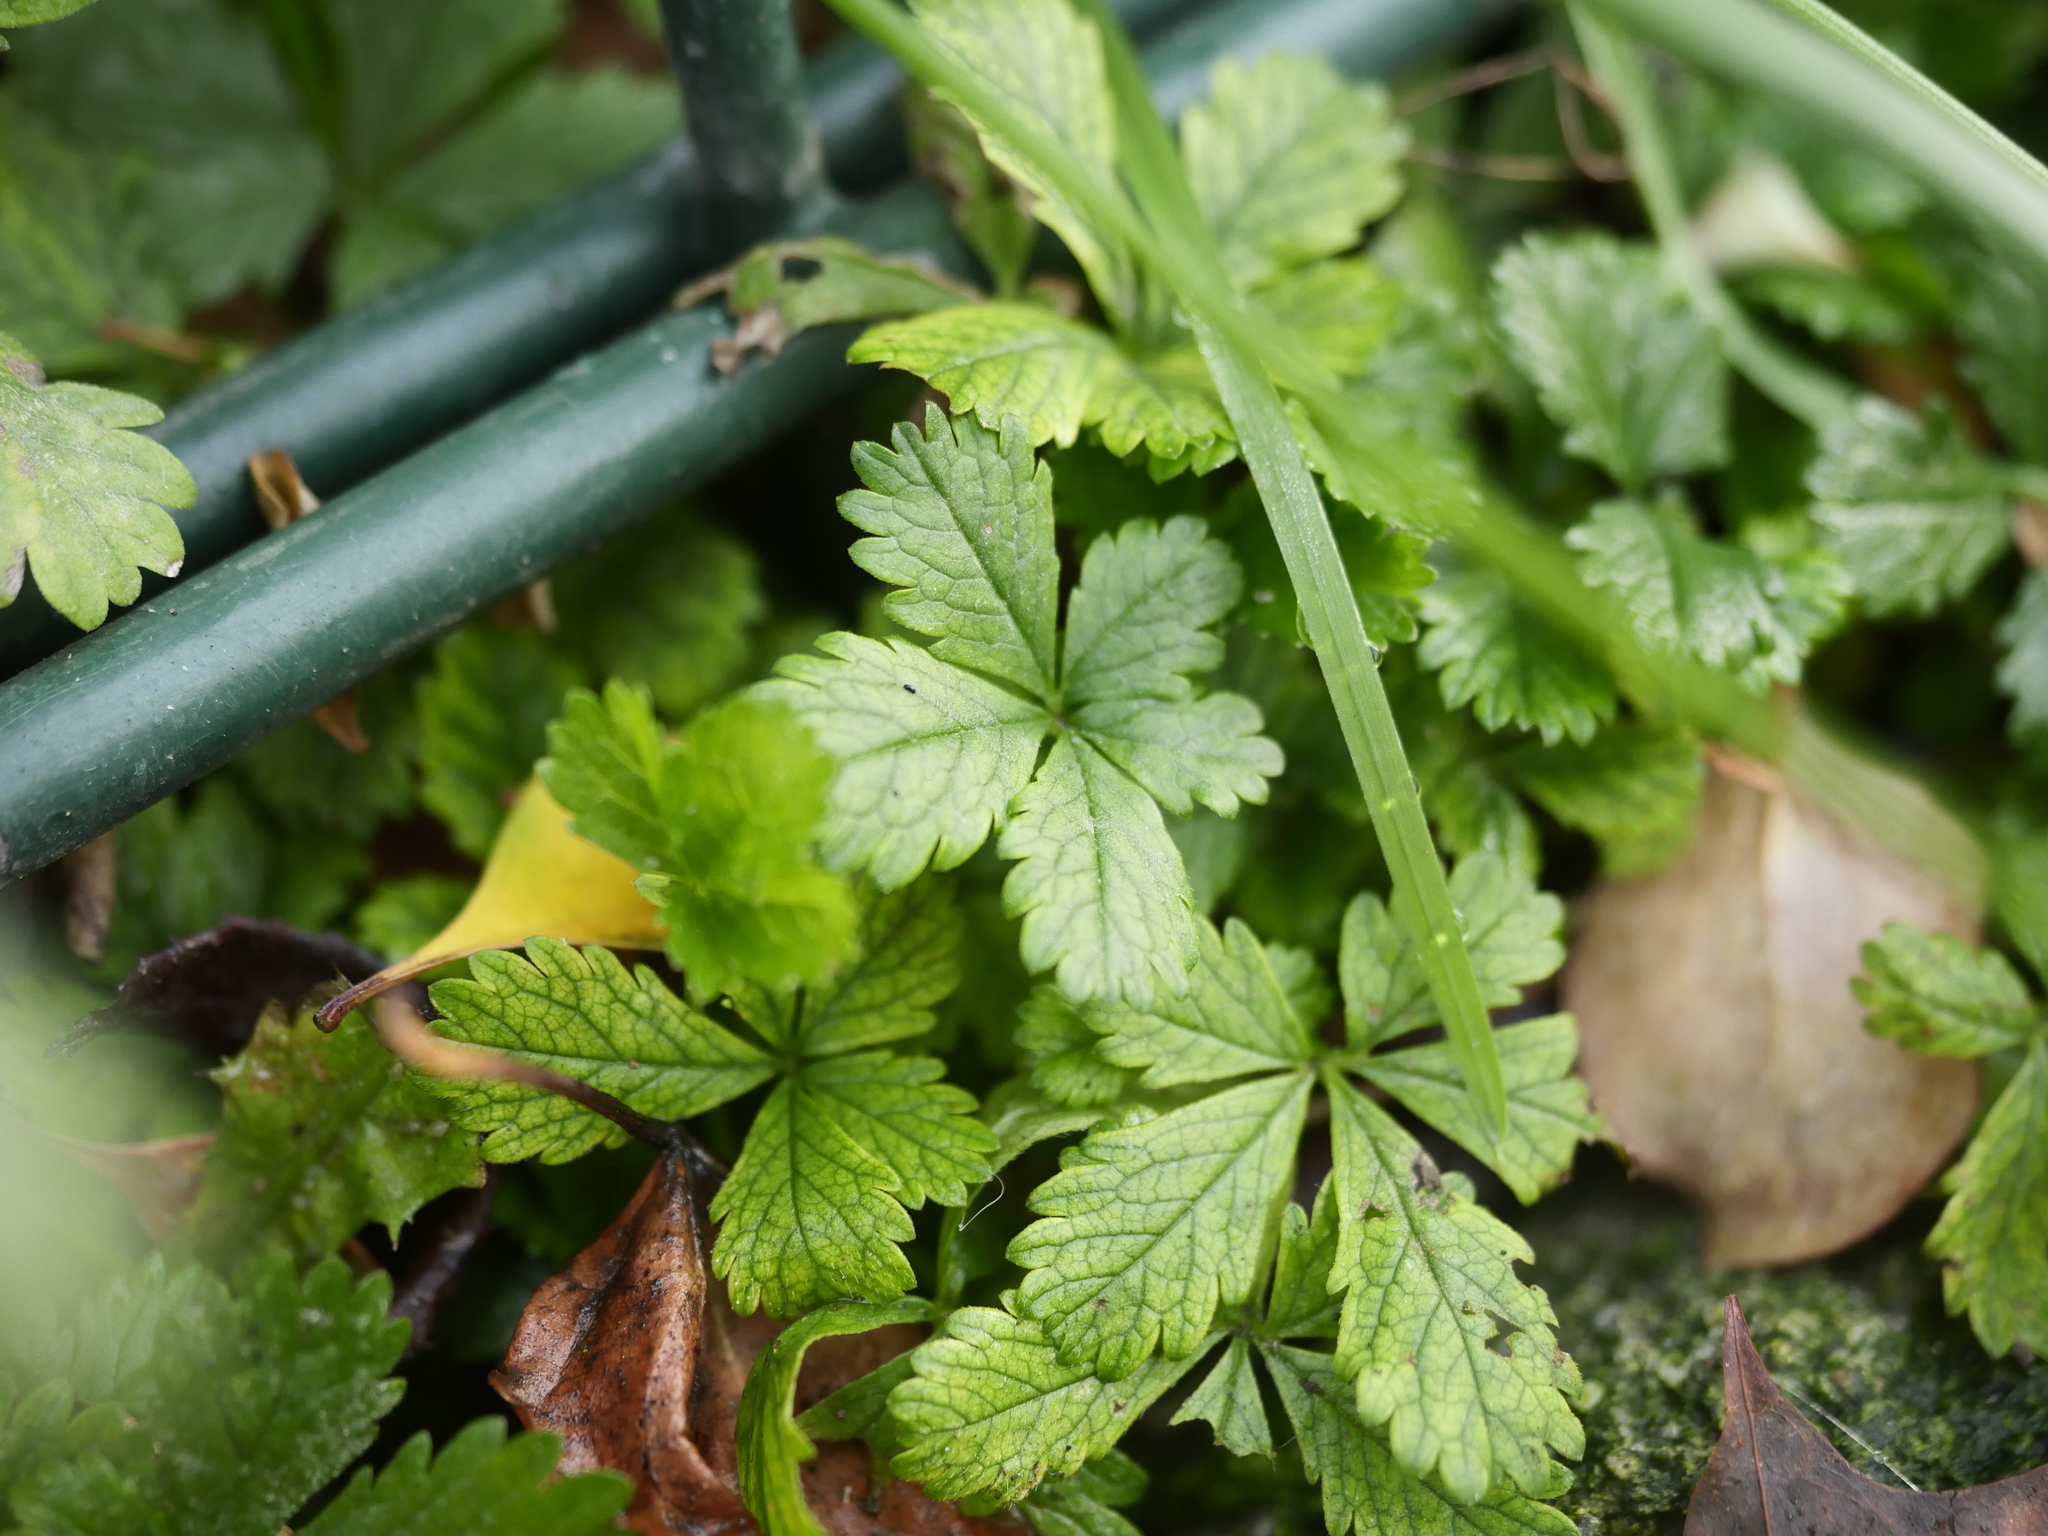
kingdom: Plantae
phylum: Tracheophyta
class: Magnoliopsida
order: Rosales
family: Rosaceae
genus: Potentilla
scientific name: Potentilla reptans
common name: Creeping cinquefoil
